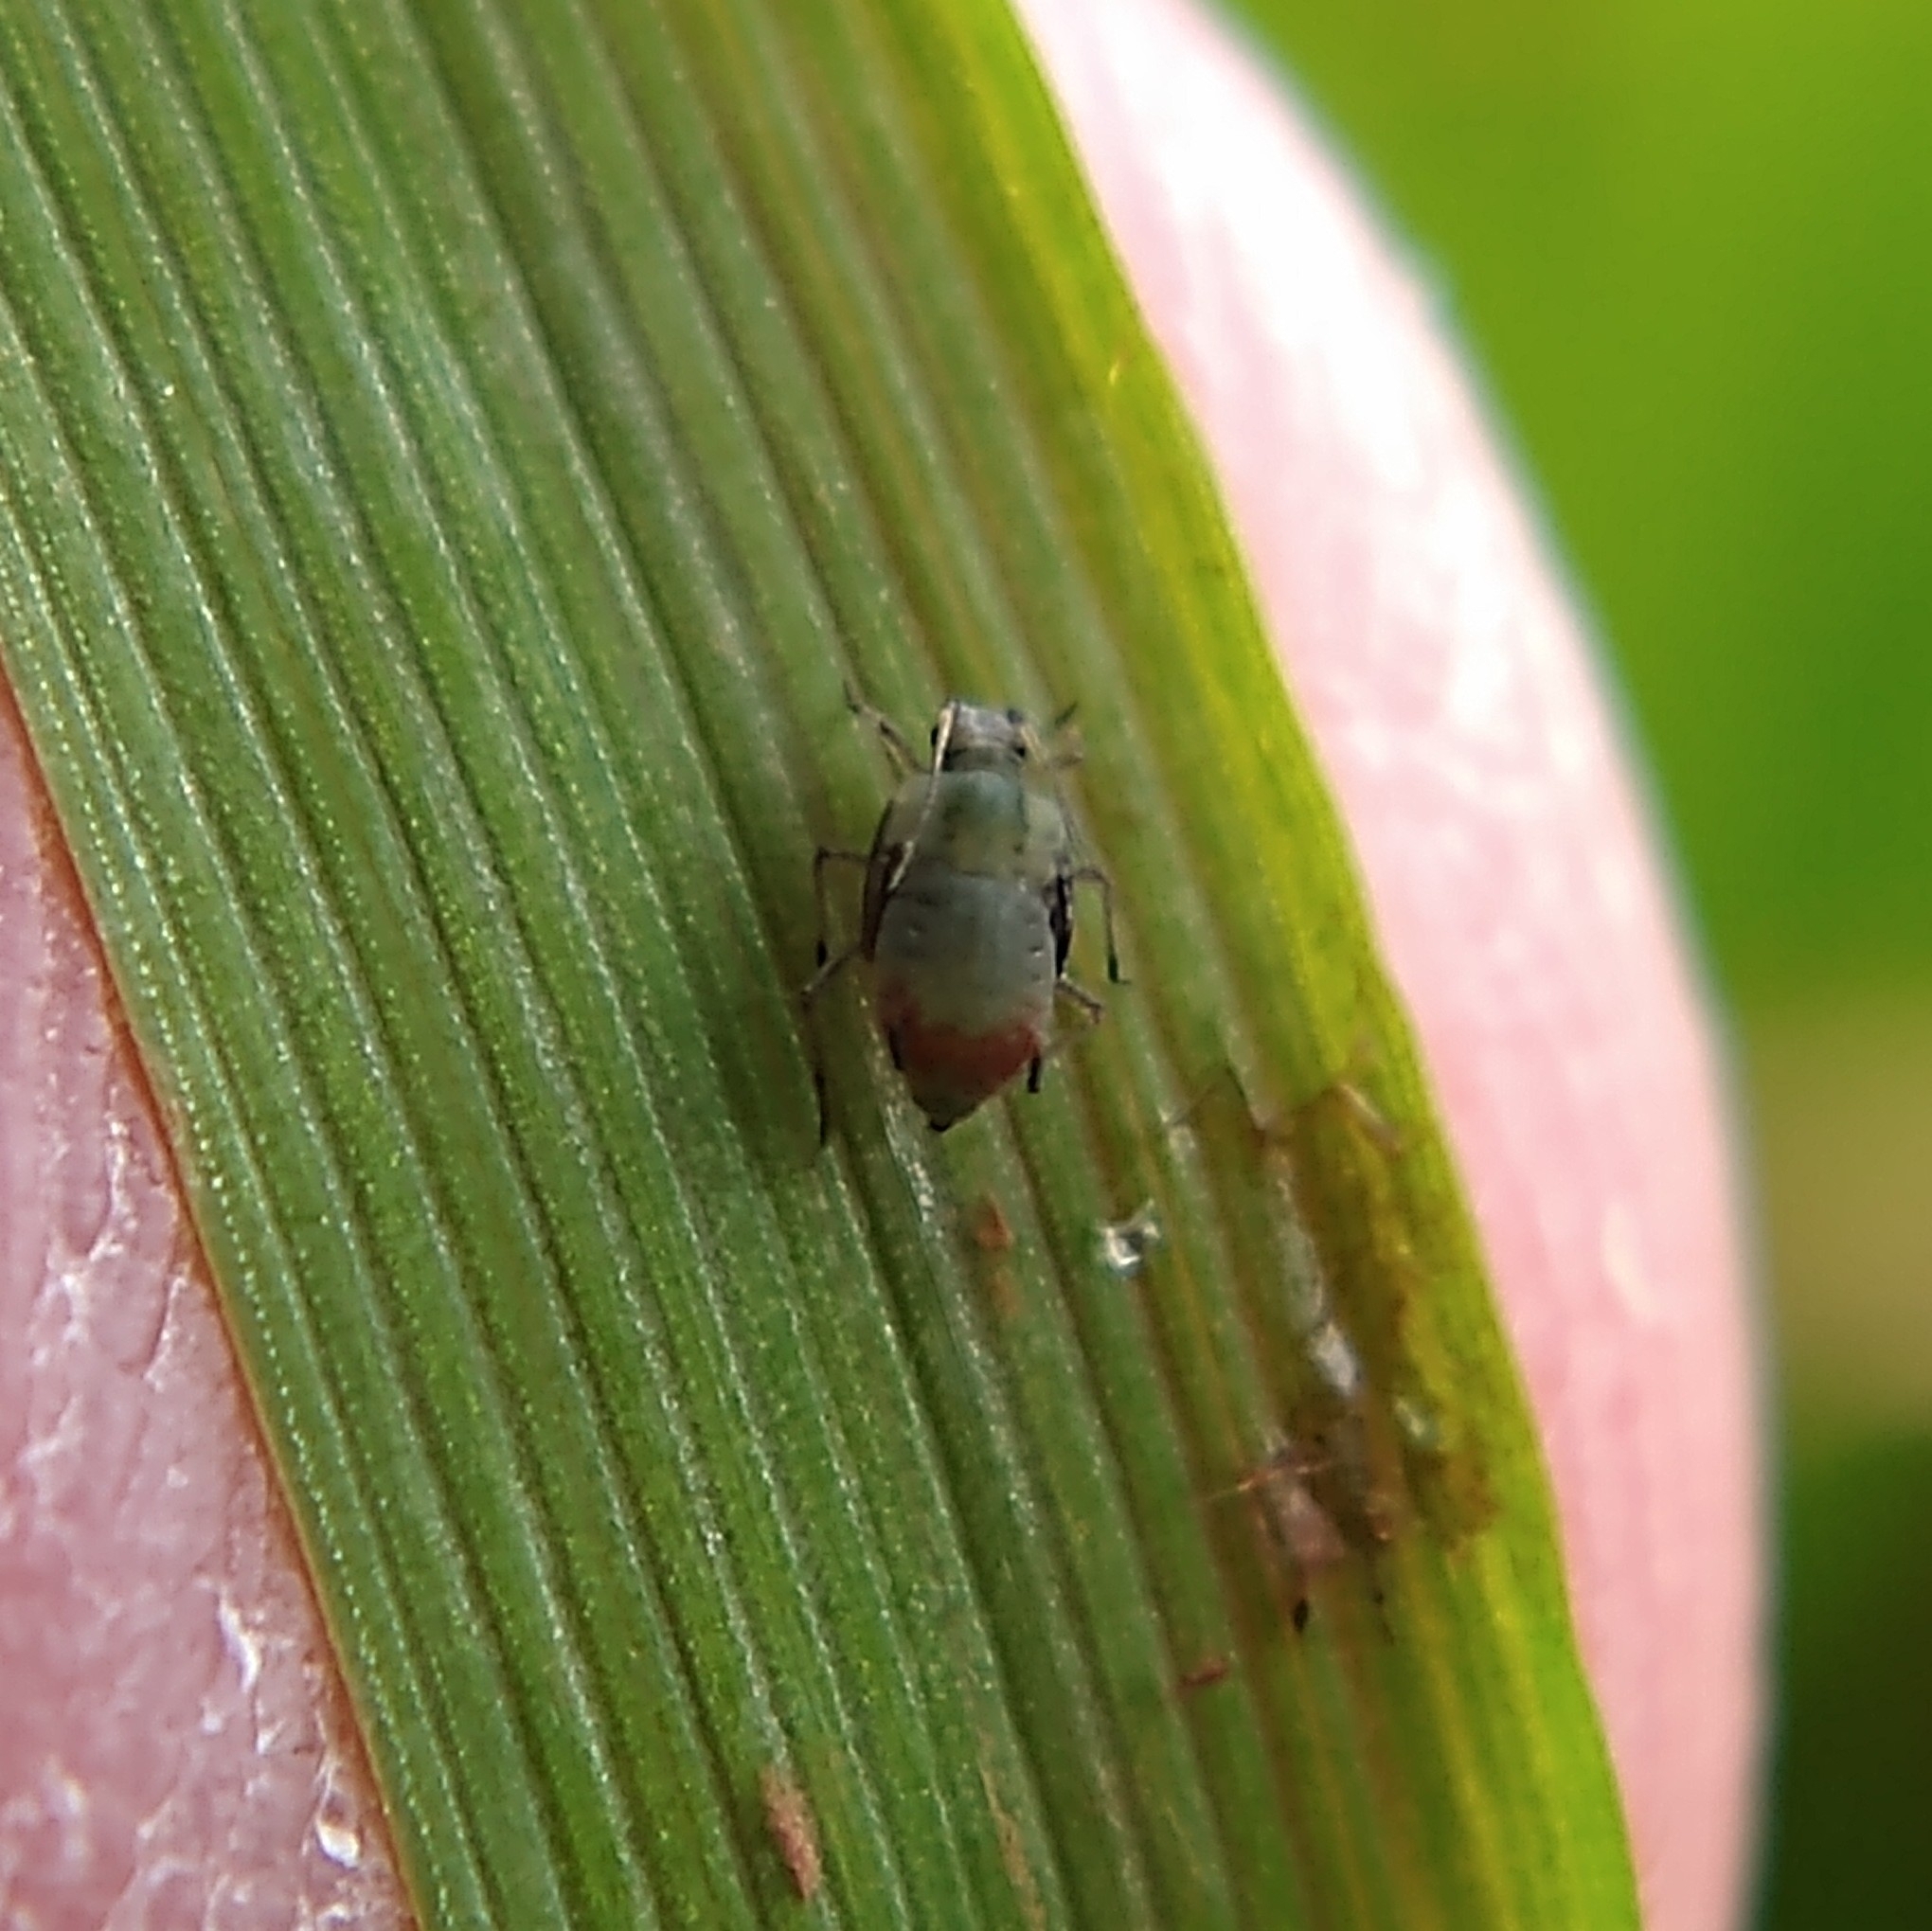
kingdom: Animalia
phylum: Arthropoda
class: Insecta
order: Hemiptera
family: Aphididae
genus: Rhopalosiphum
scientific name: Rhopalosiphum
